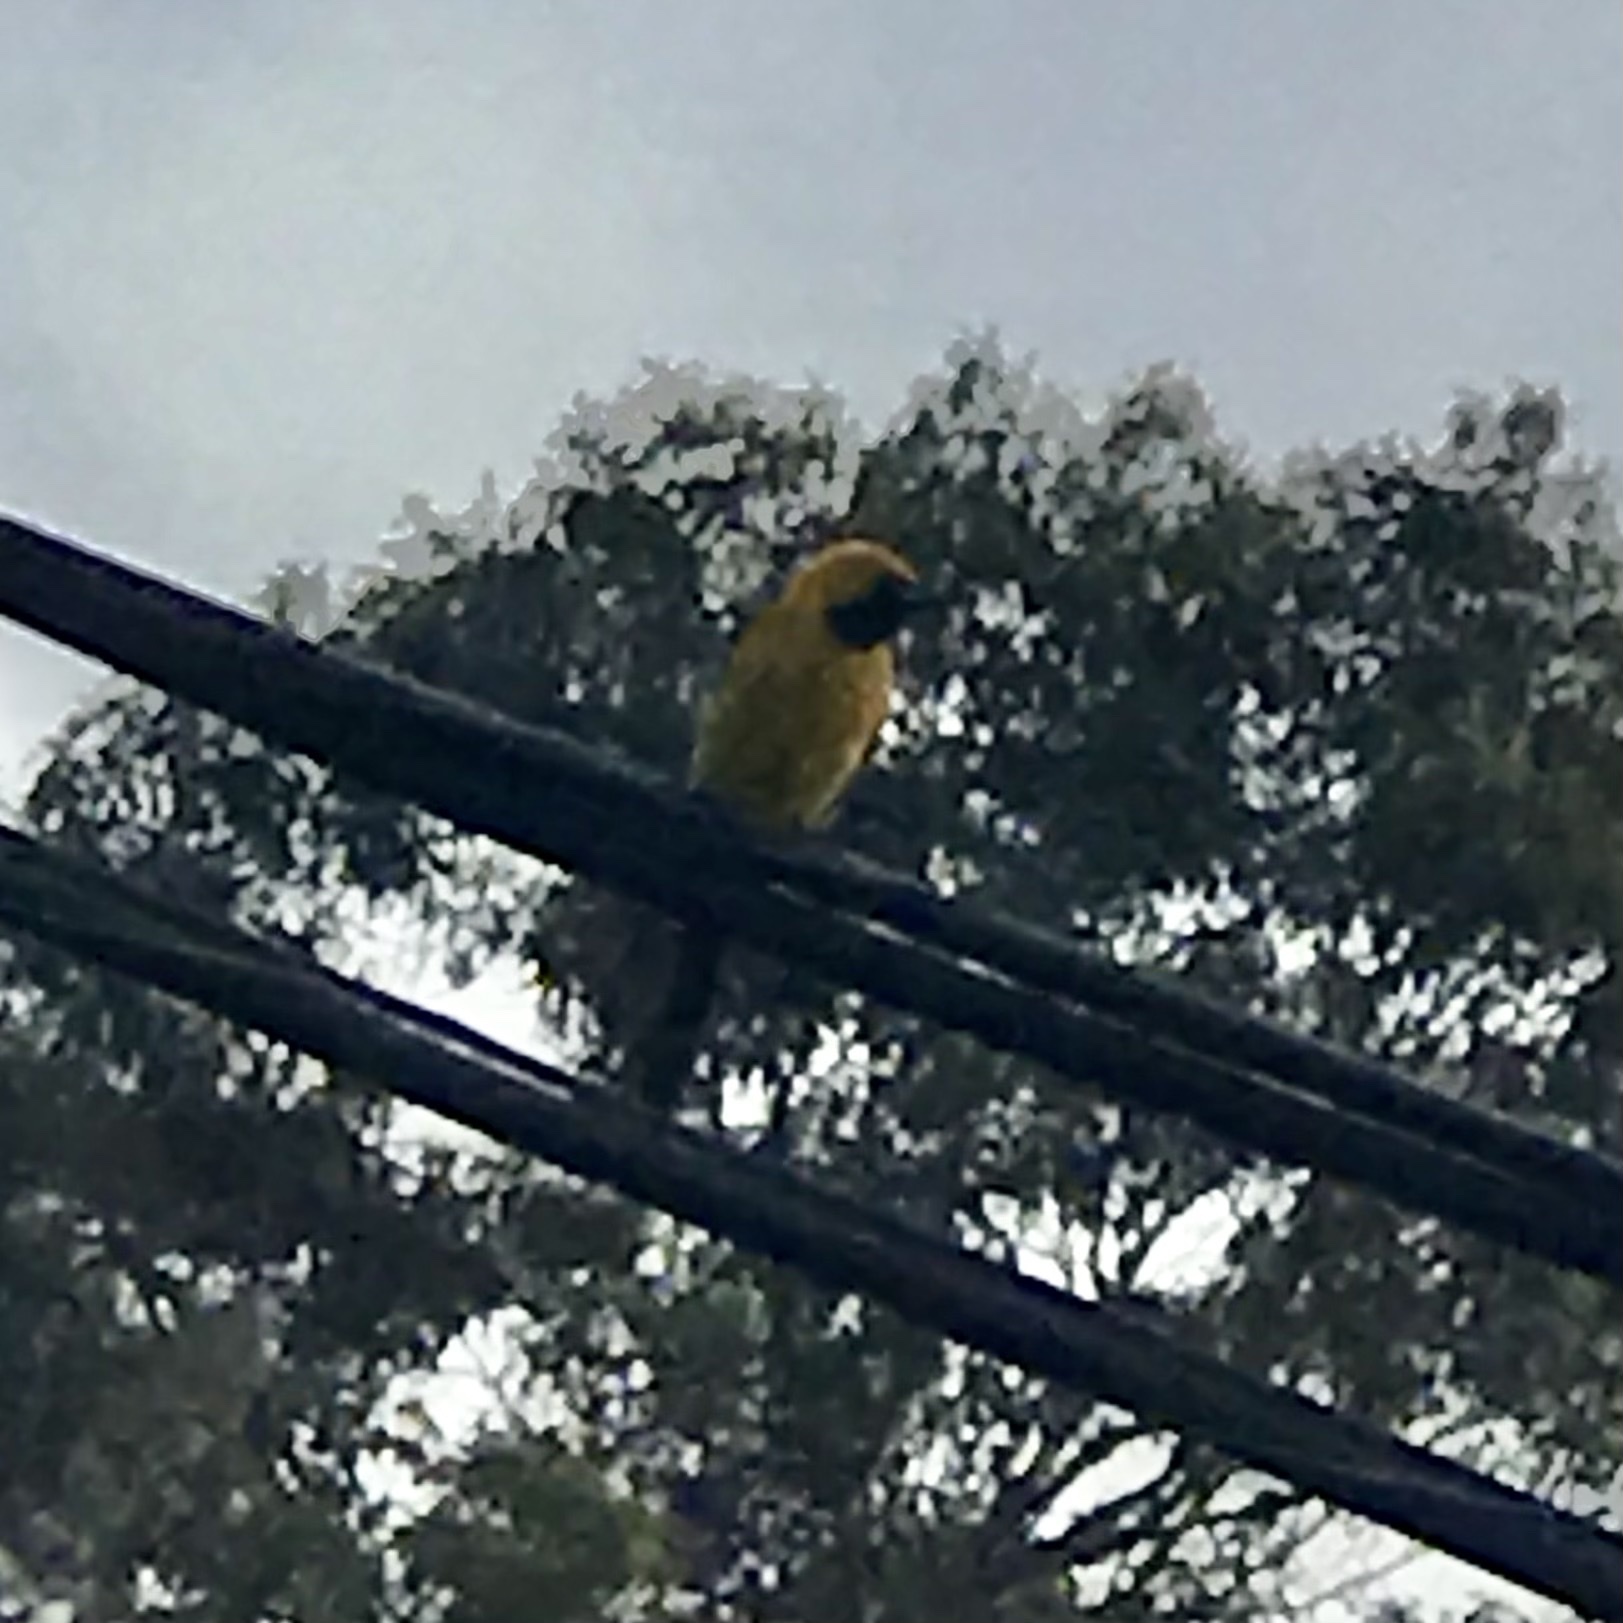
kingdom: Animalia
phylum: Chordata
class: Aves
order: Passeriformes
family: Icteridae
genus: Icterus
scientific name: Icterus cucullatus
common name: Hooded oriole
